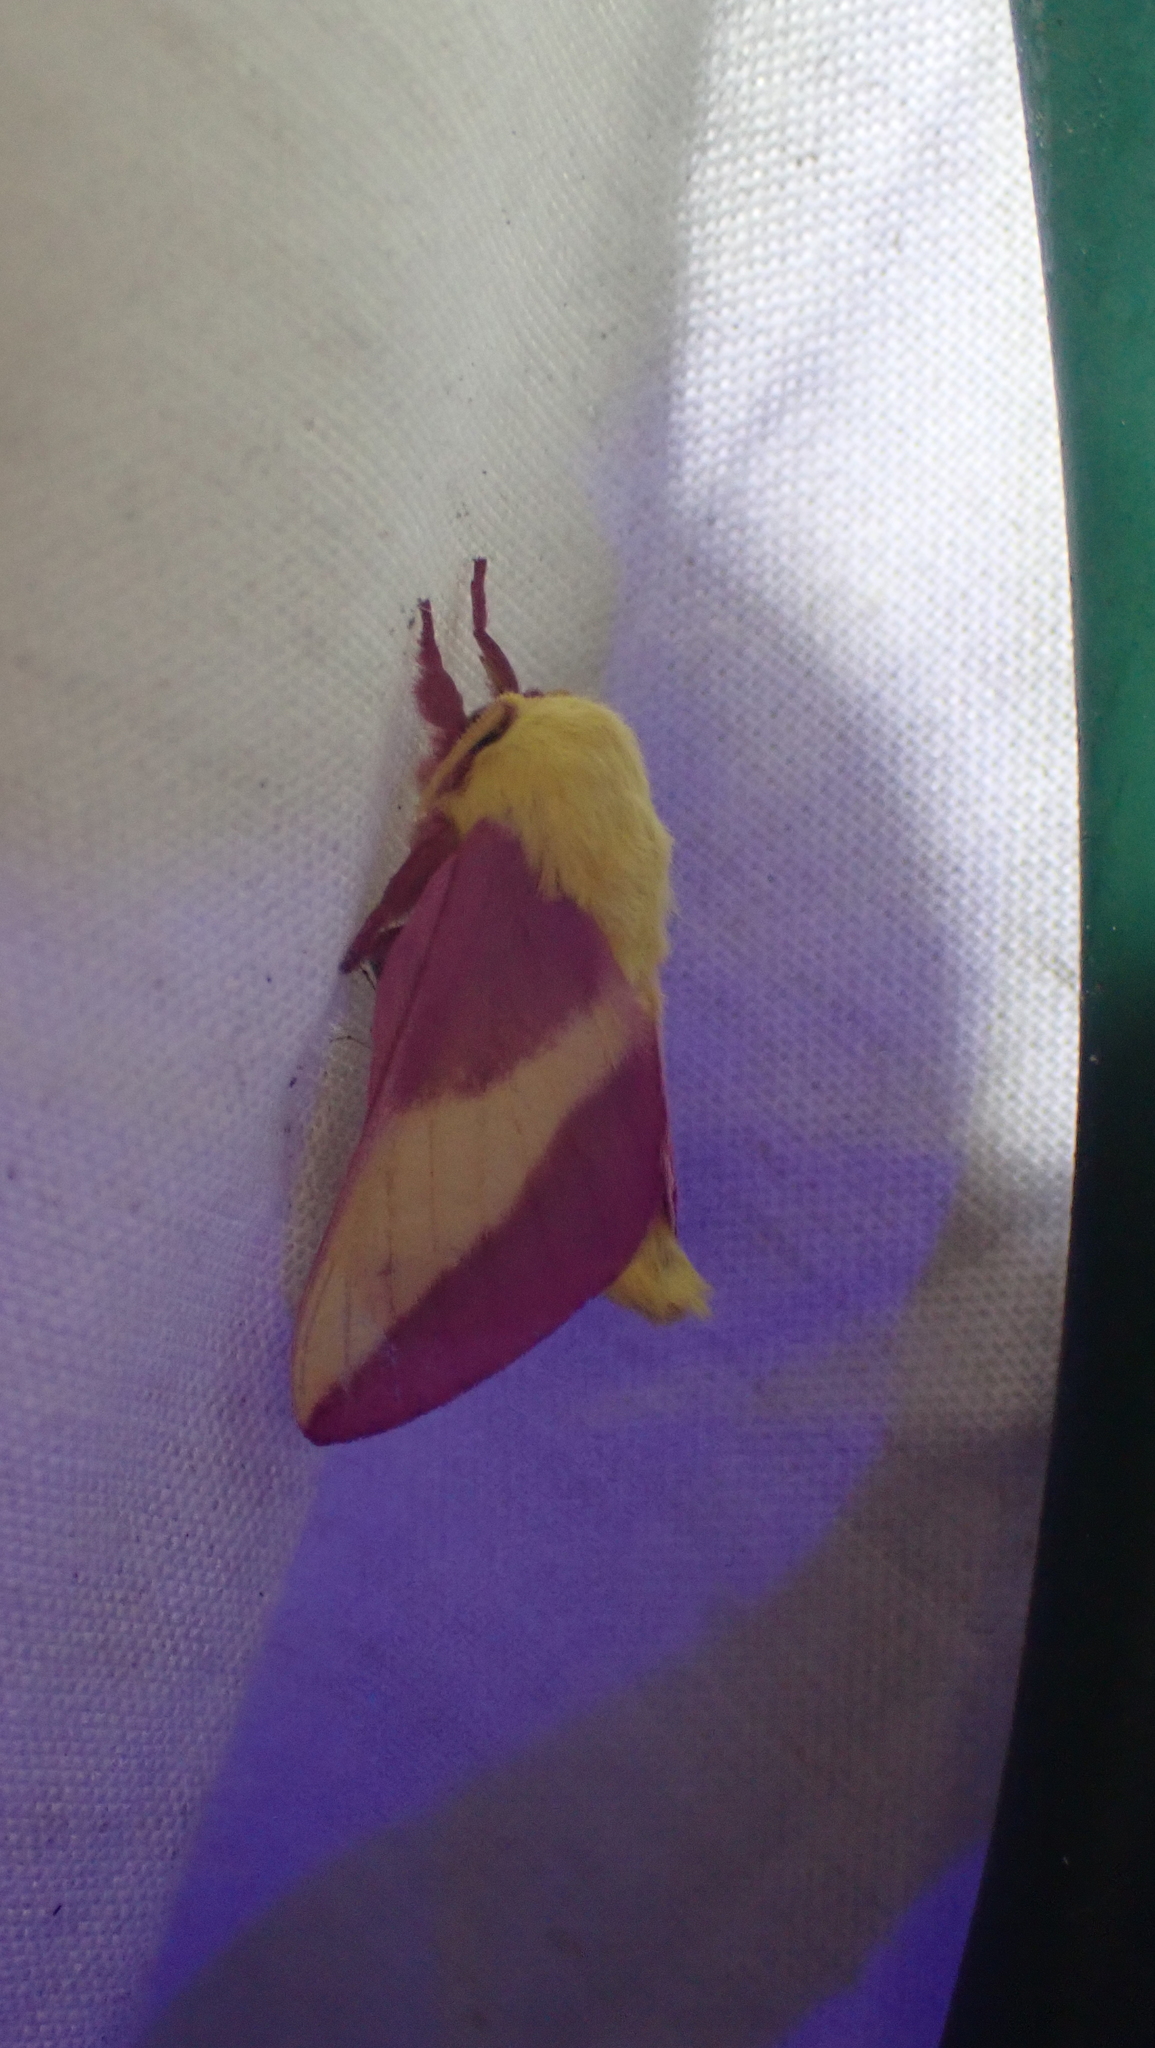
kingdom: Animalia
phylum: Arthropoda
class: Insecta
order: Lepidoptera
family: Saturniidae
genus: Dryocampa
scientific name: Dryocampa rubicunda
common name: Rosy maple moth
